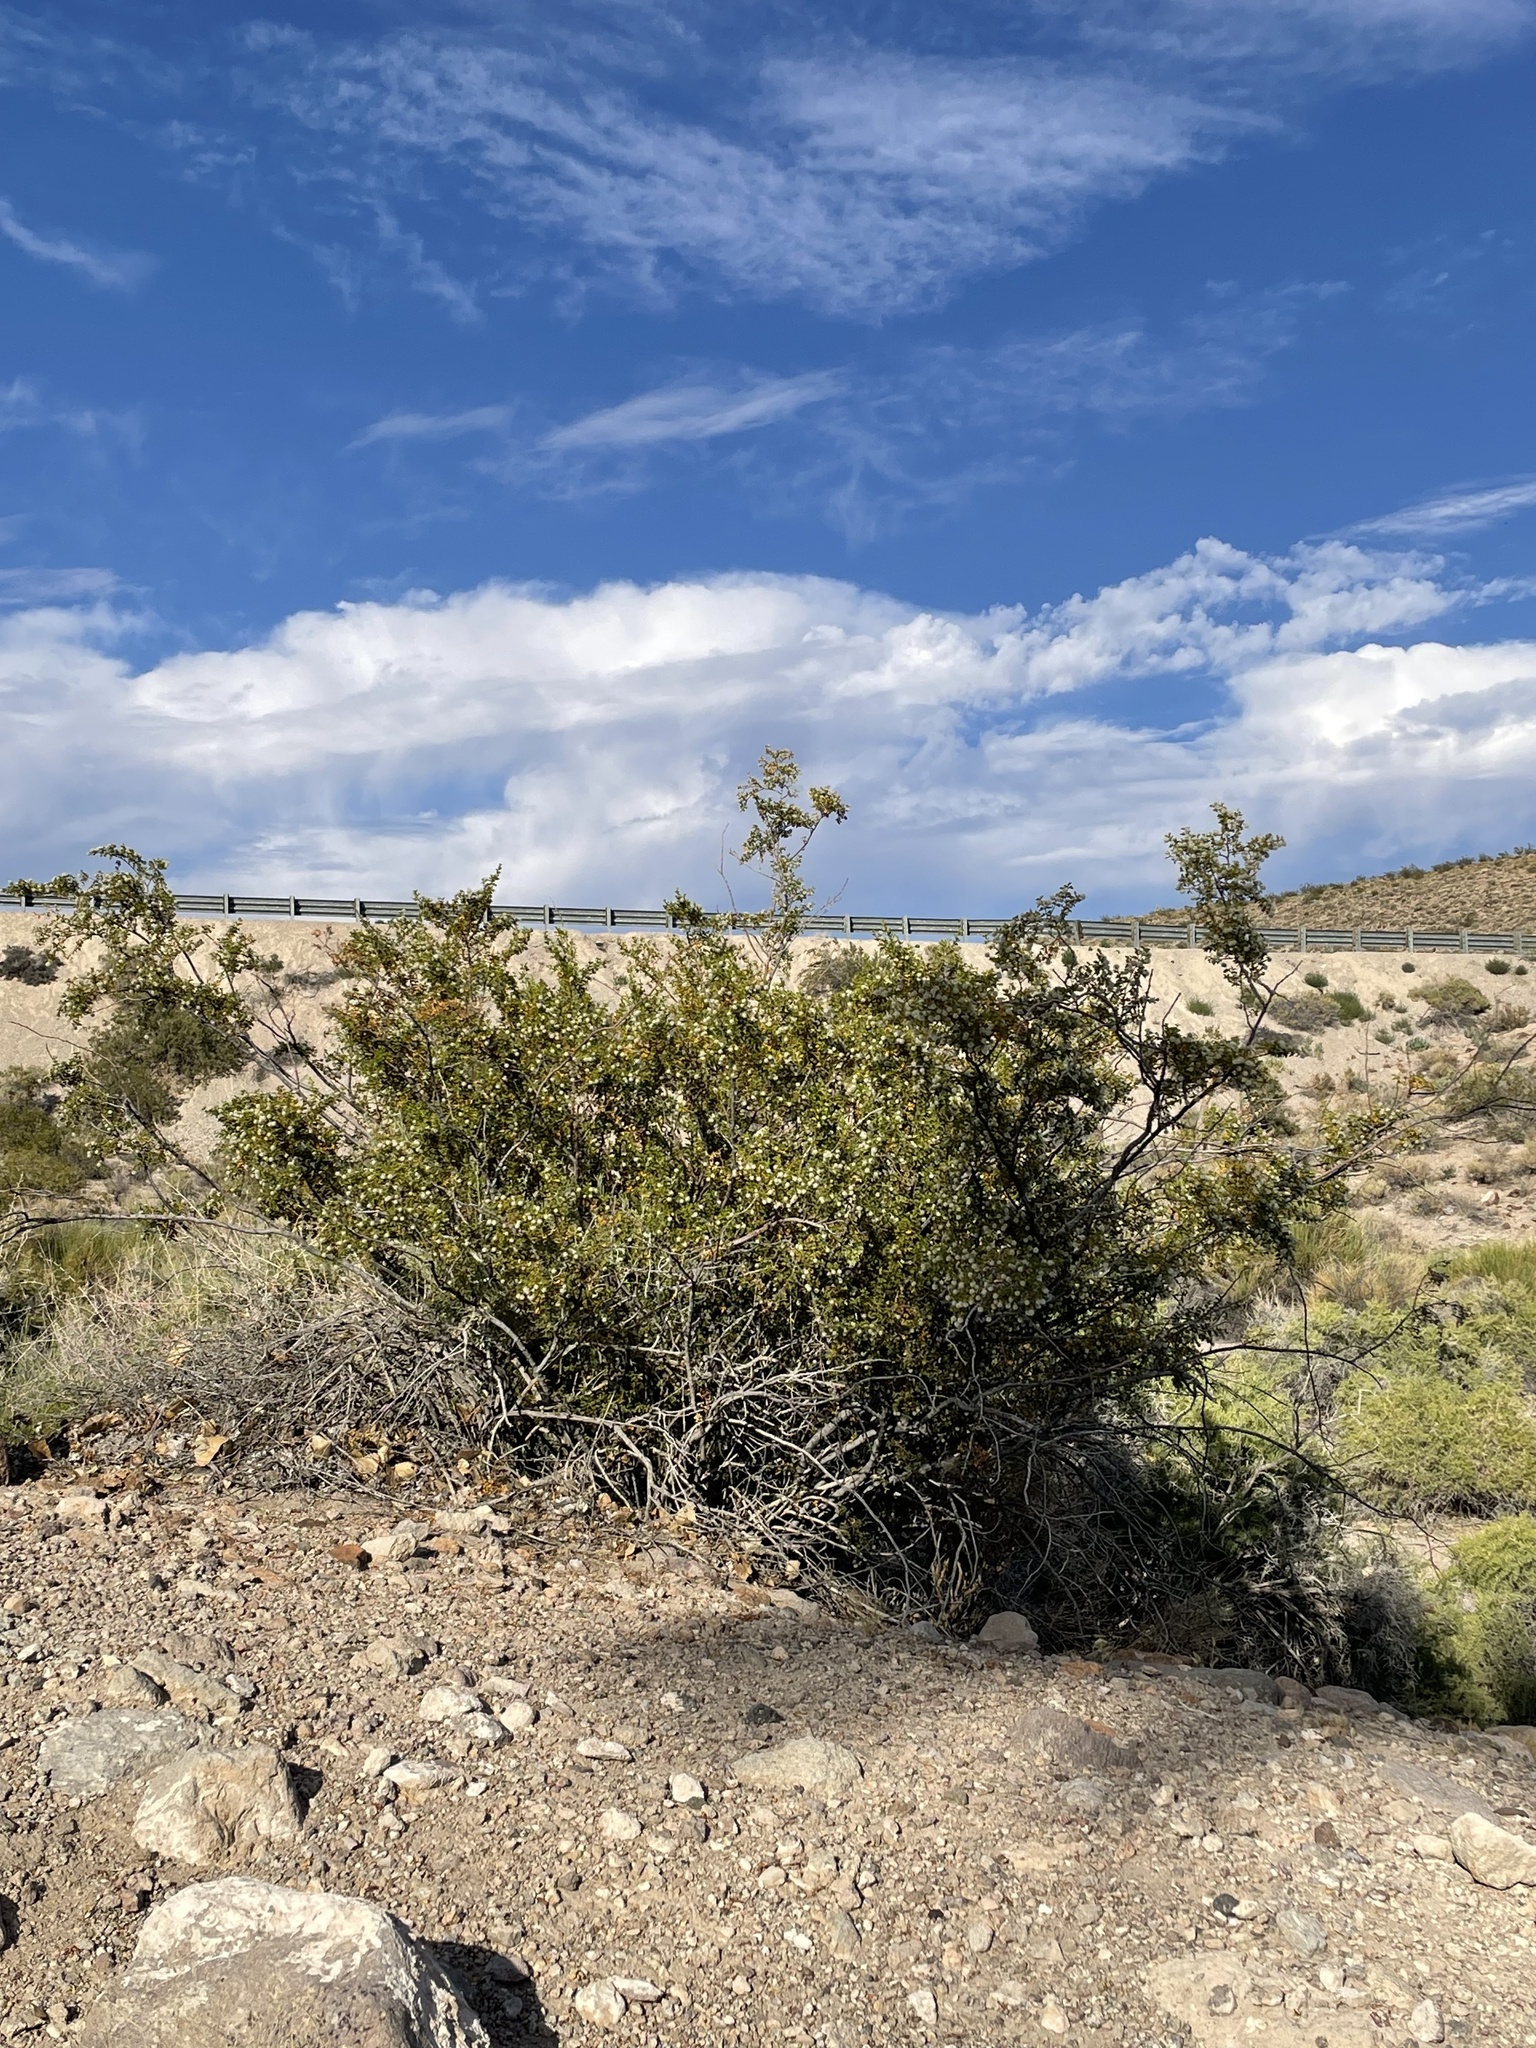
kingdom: Plantae
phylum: Tracheophyta
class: Magnoliopsida
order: Zygophyllales
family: Zygophyllaceae
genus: Larrea
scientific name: Larrea tridentata
